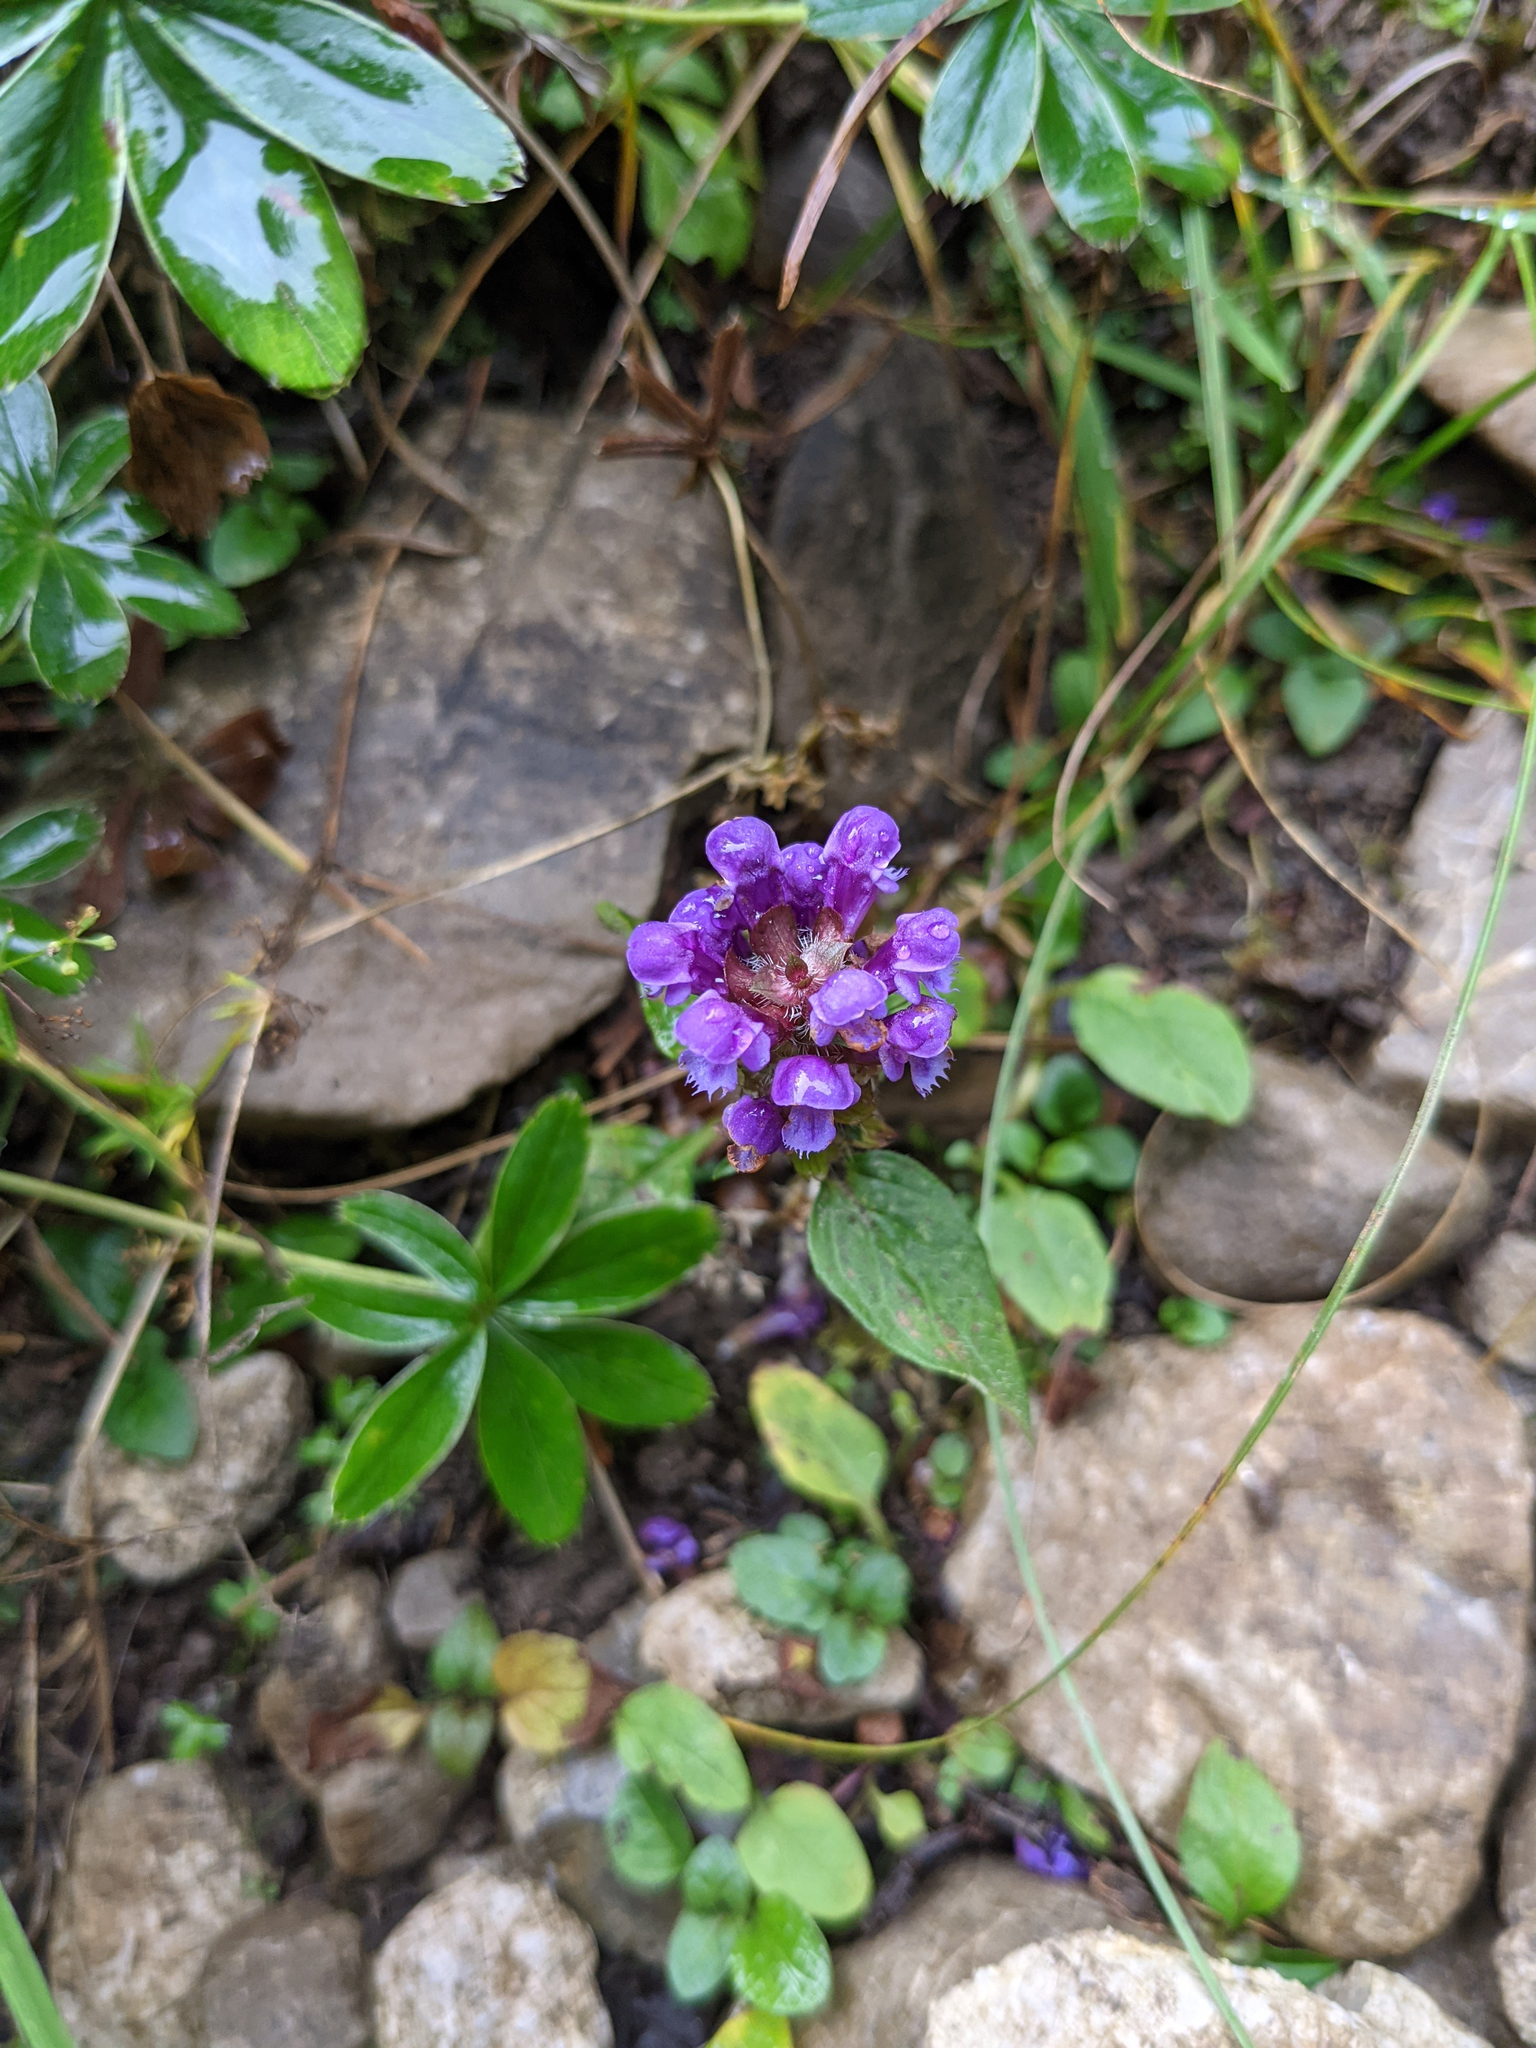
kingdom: Plantae
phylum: Tracheophyta
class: Magnoliopsida
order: Lamiales
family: Lamiaceae
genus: Prunella
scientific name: Prunella vulgaris
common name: Heal-all
